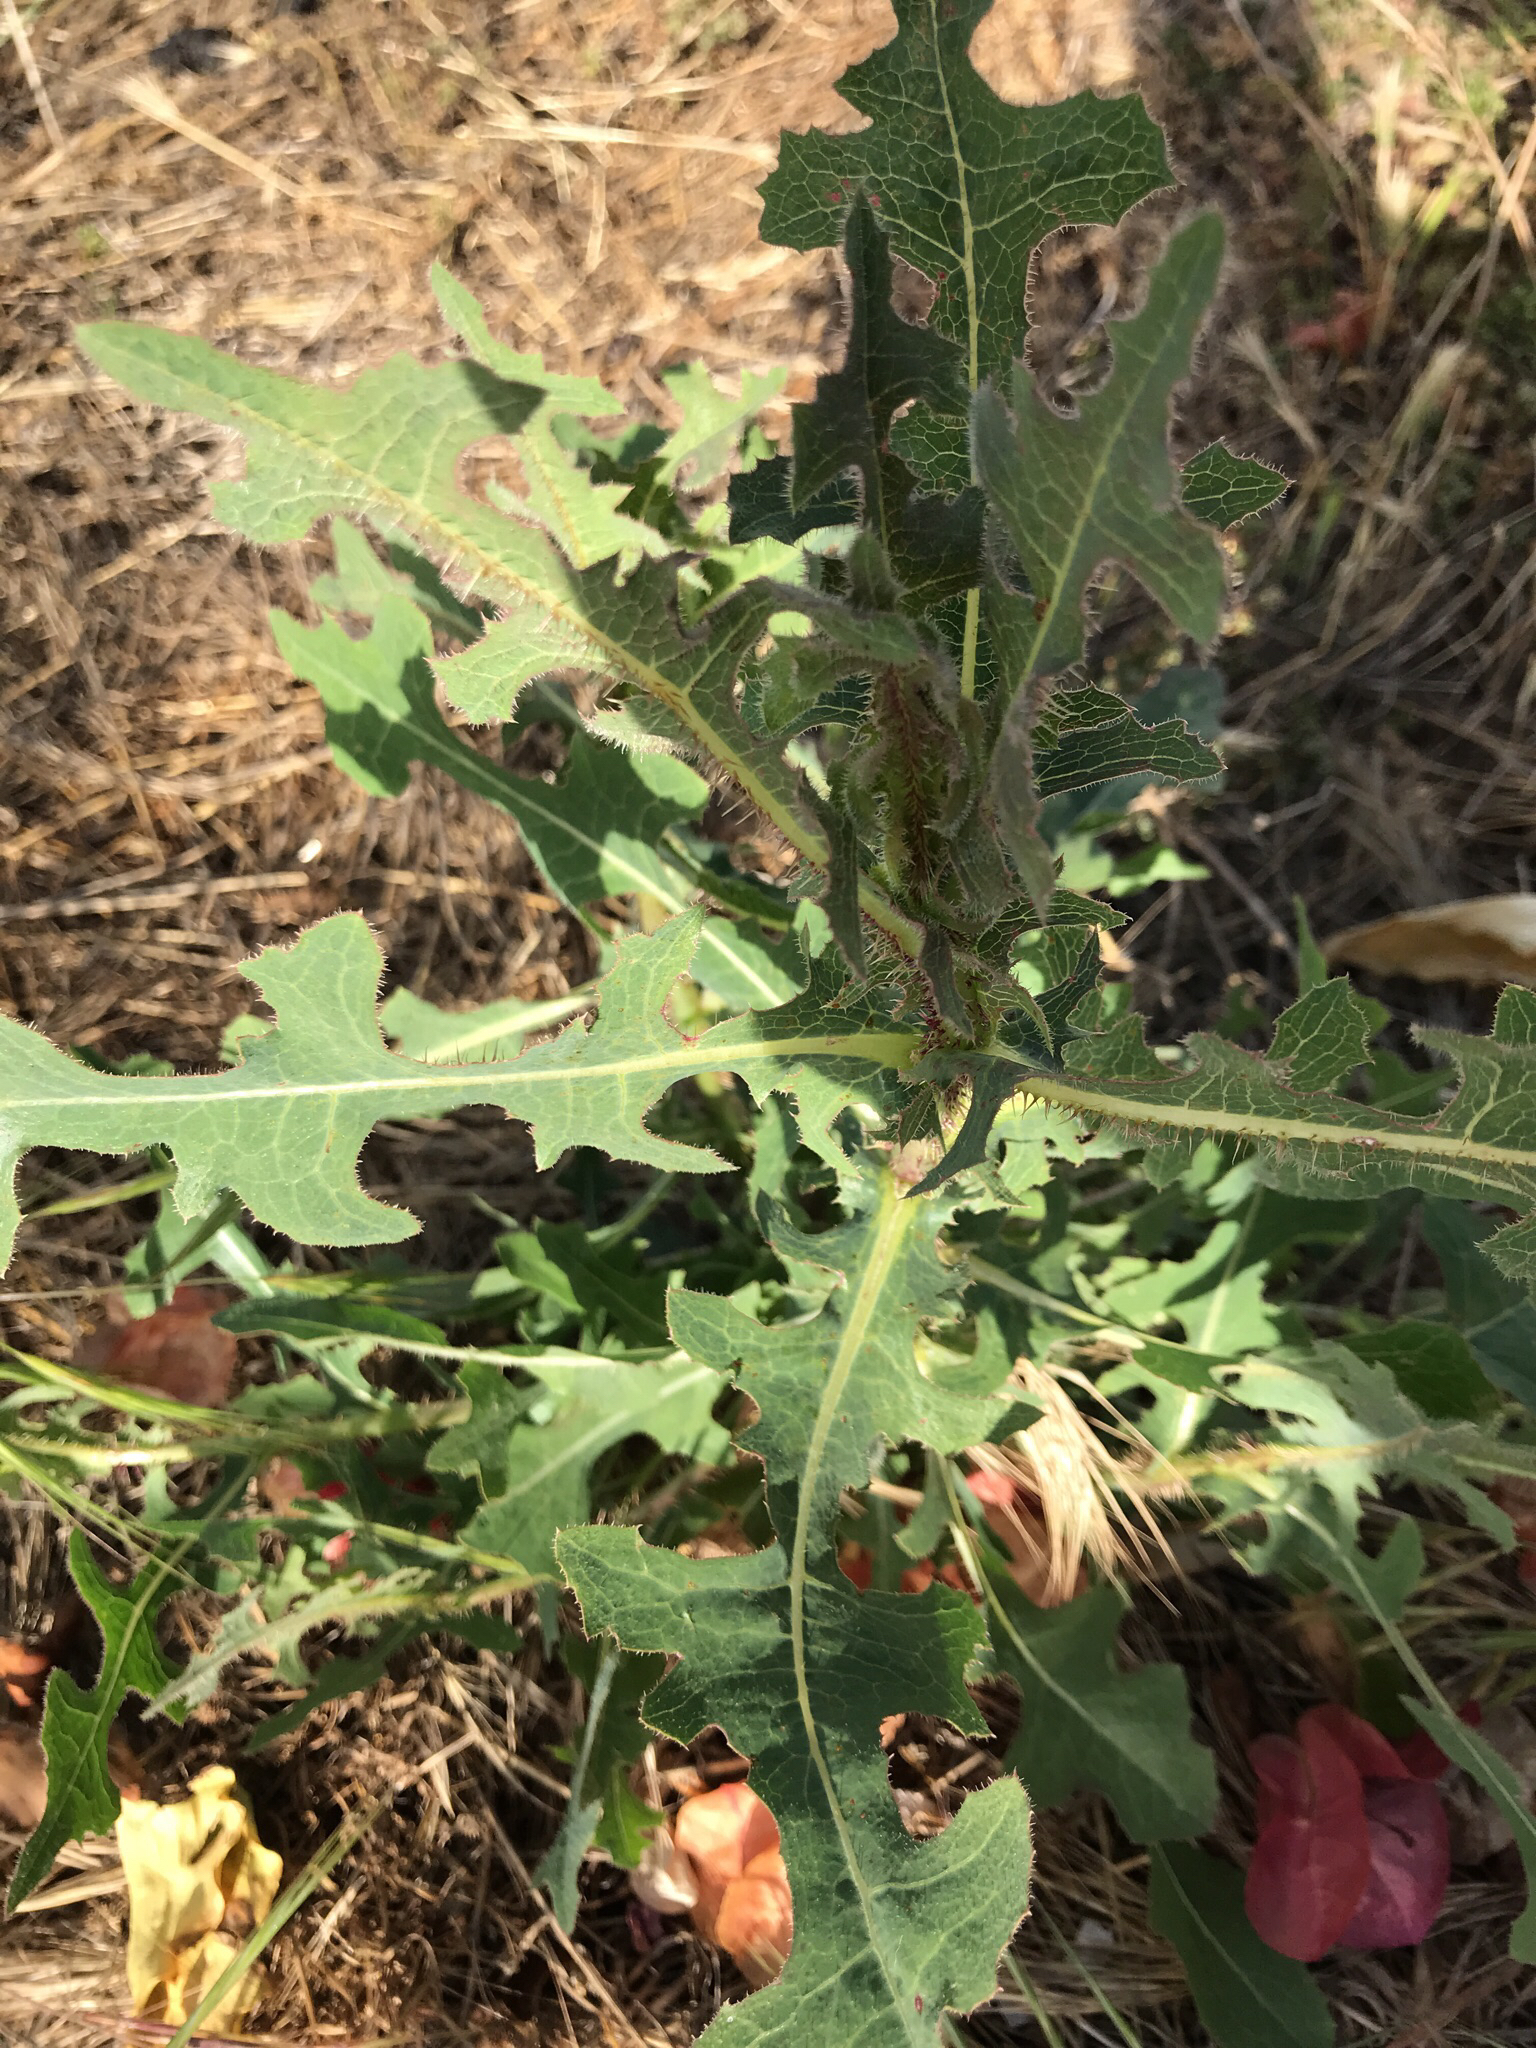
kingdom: Plantae
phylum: Tracheophyta
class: Magnoliopsida
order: Asterales
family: Asteraceae
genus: Lactuca
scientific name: Lactuca serriola
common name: Prickly lettuce
